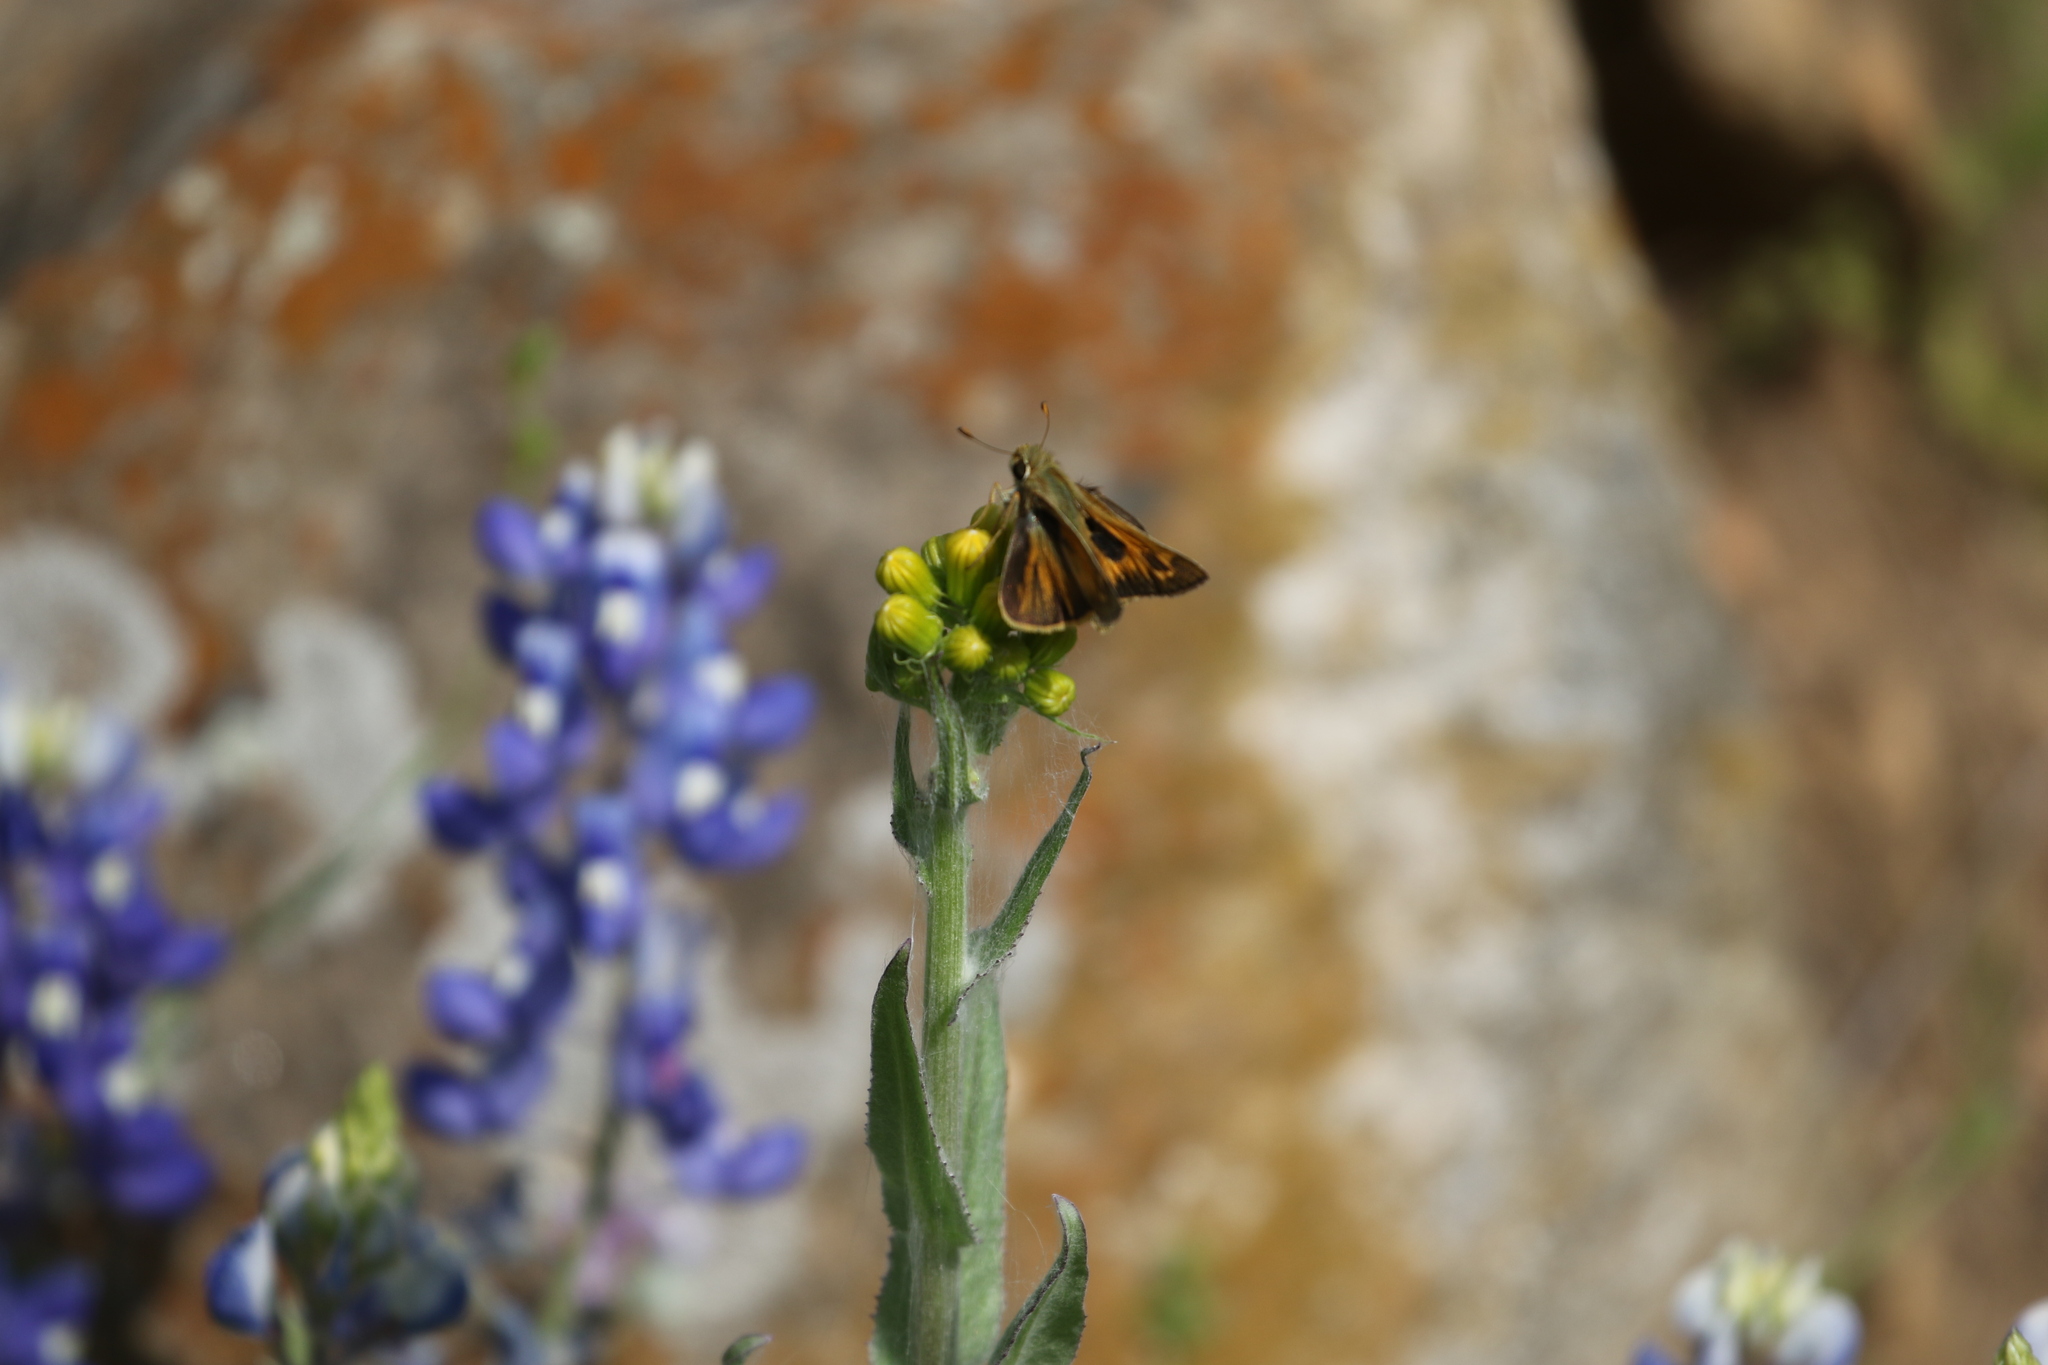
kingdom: Animalia
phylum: Arthropoda
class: Insecta
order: Lepidoptera
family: Hesperiidae
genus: Atalopedes
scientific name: Atalopedes
